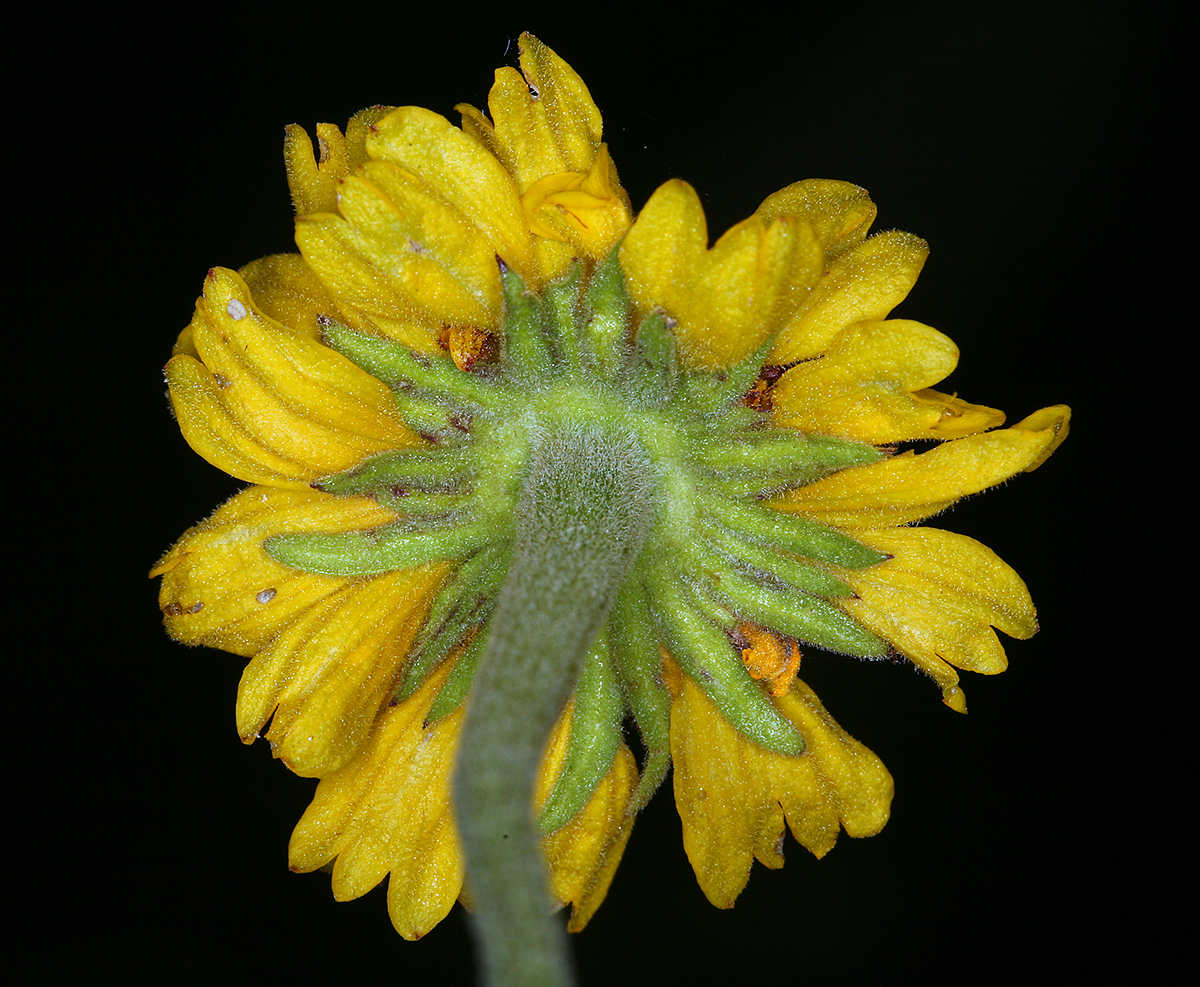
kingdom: Plantae
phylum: Tracheophyta
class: Magnoliopsida
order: Asterales
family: Asteraceae
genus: Helenium
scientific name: Helenium bigelovii
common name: Bigelow's sneezeweed
